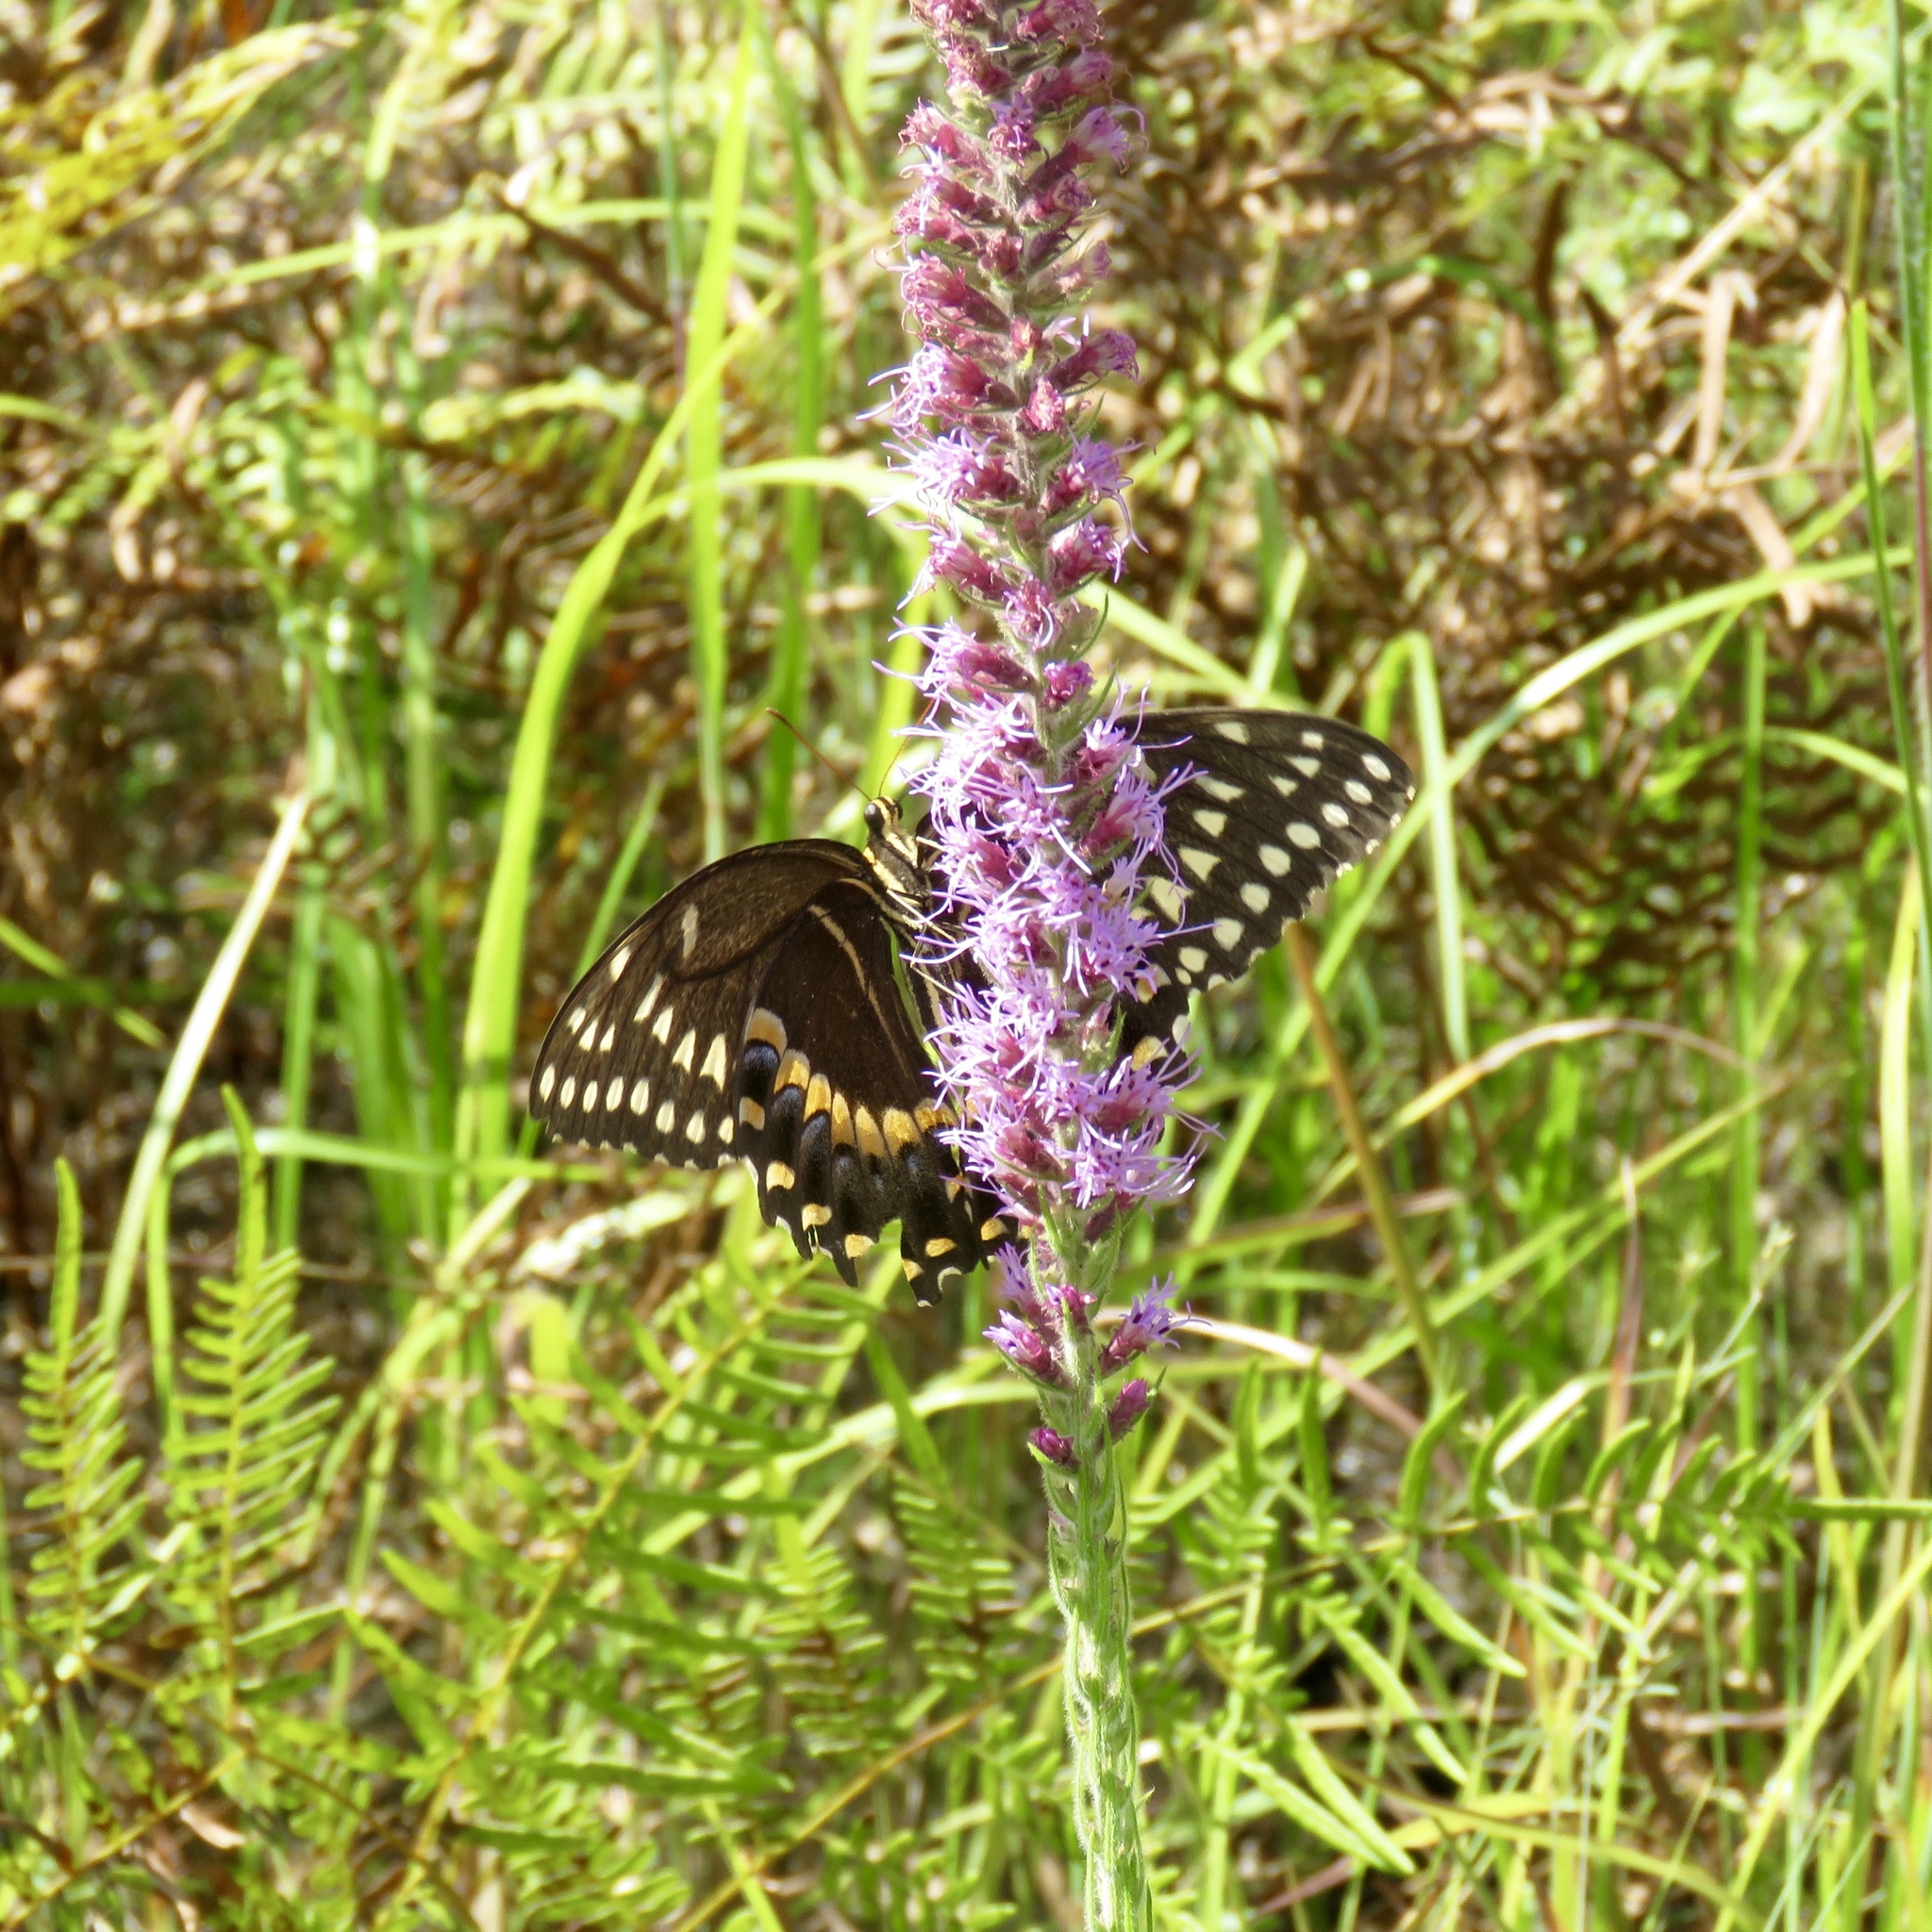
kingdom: Animalia
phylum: Arthropoda
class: Insecta
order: Lepidoptera
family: Papilionidae
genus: Papilio
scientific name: Papilio palamedes
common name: Palamedes swallowtail
